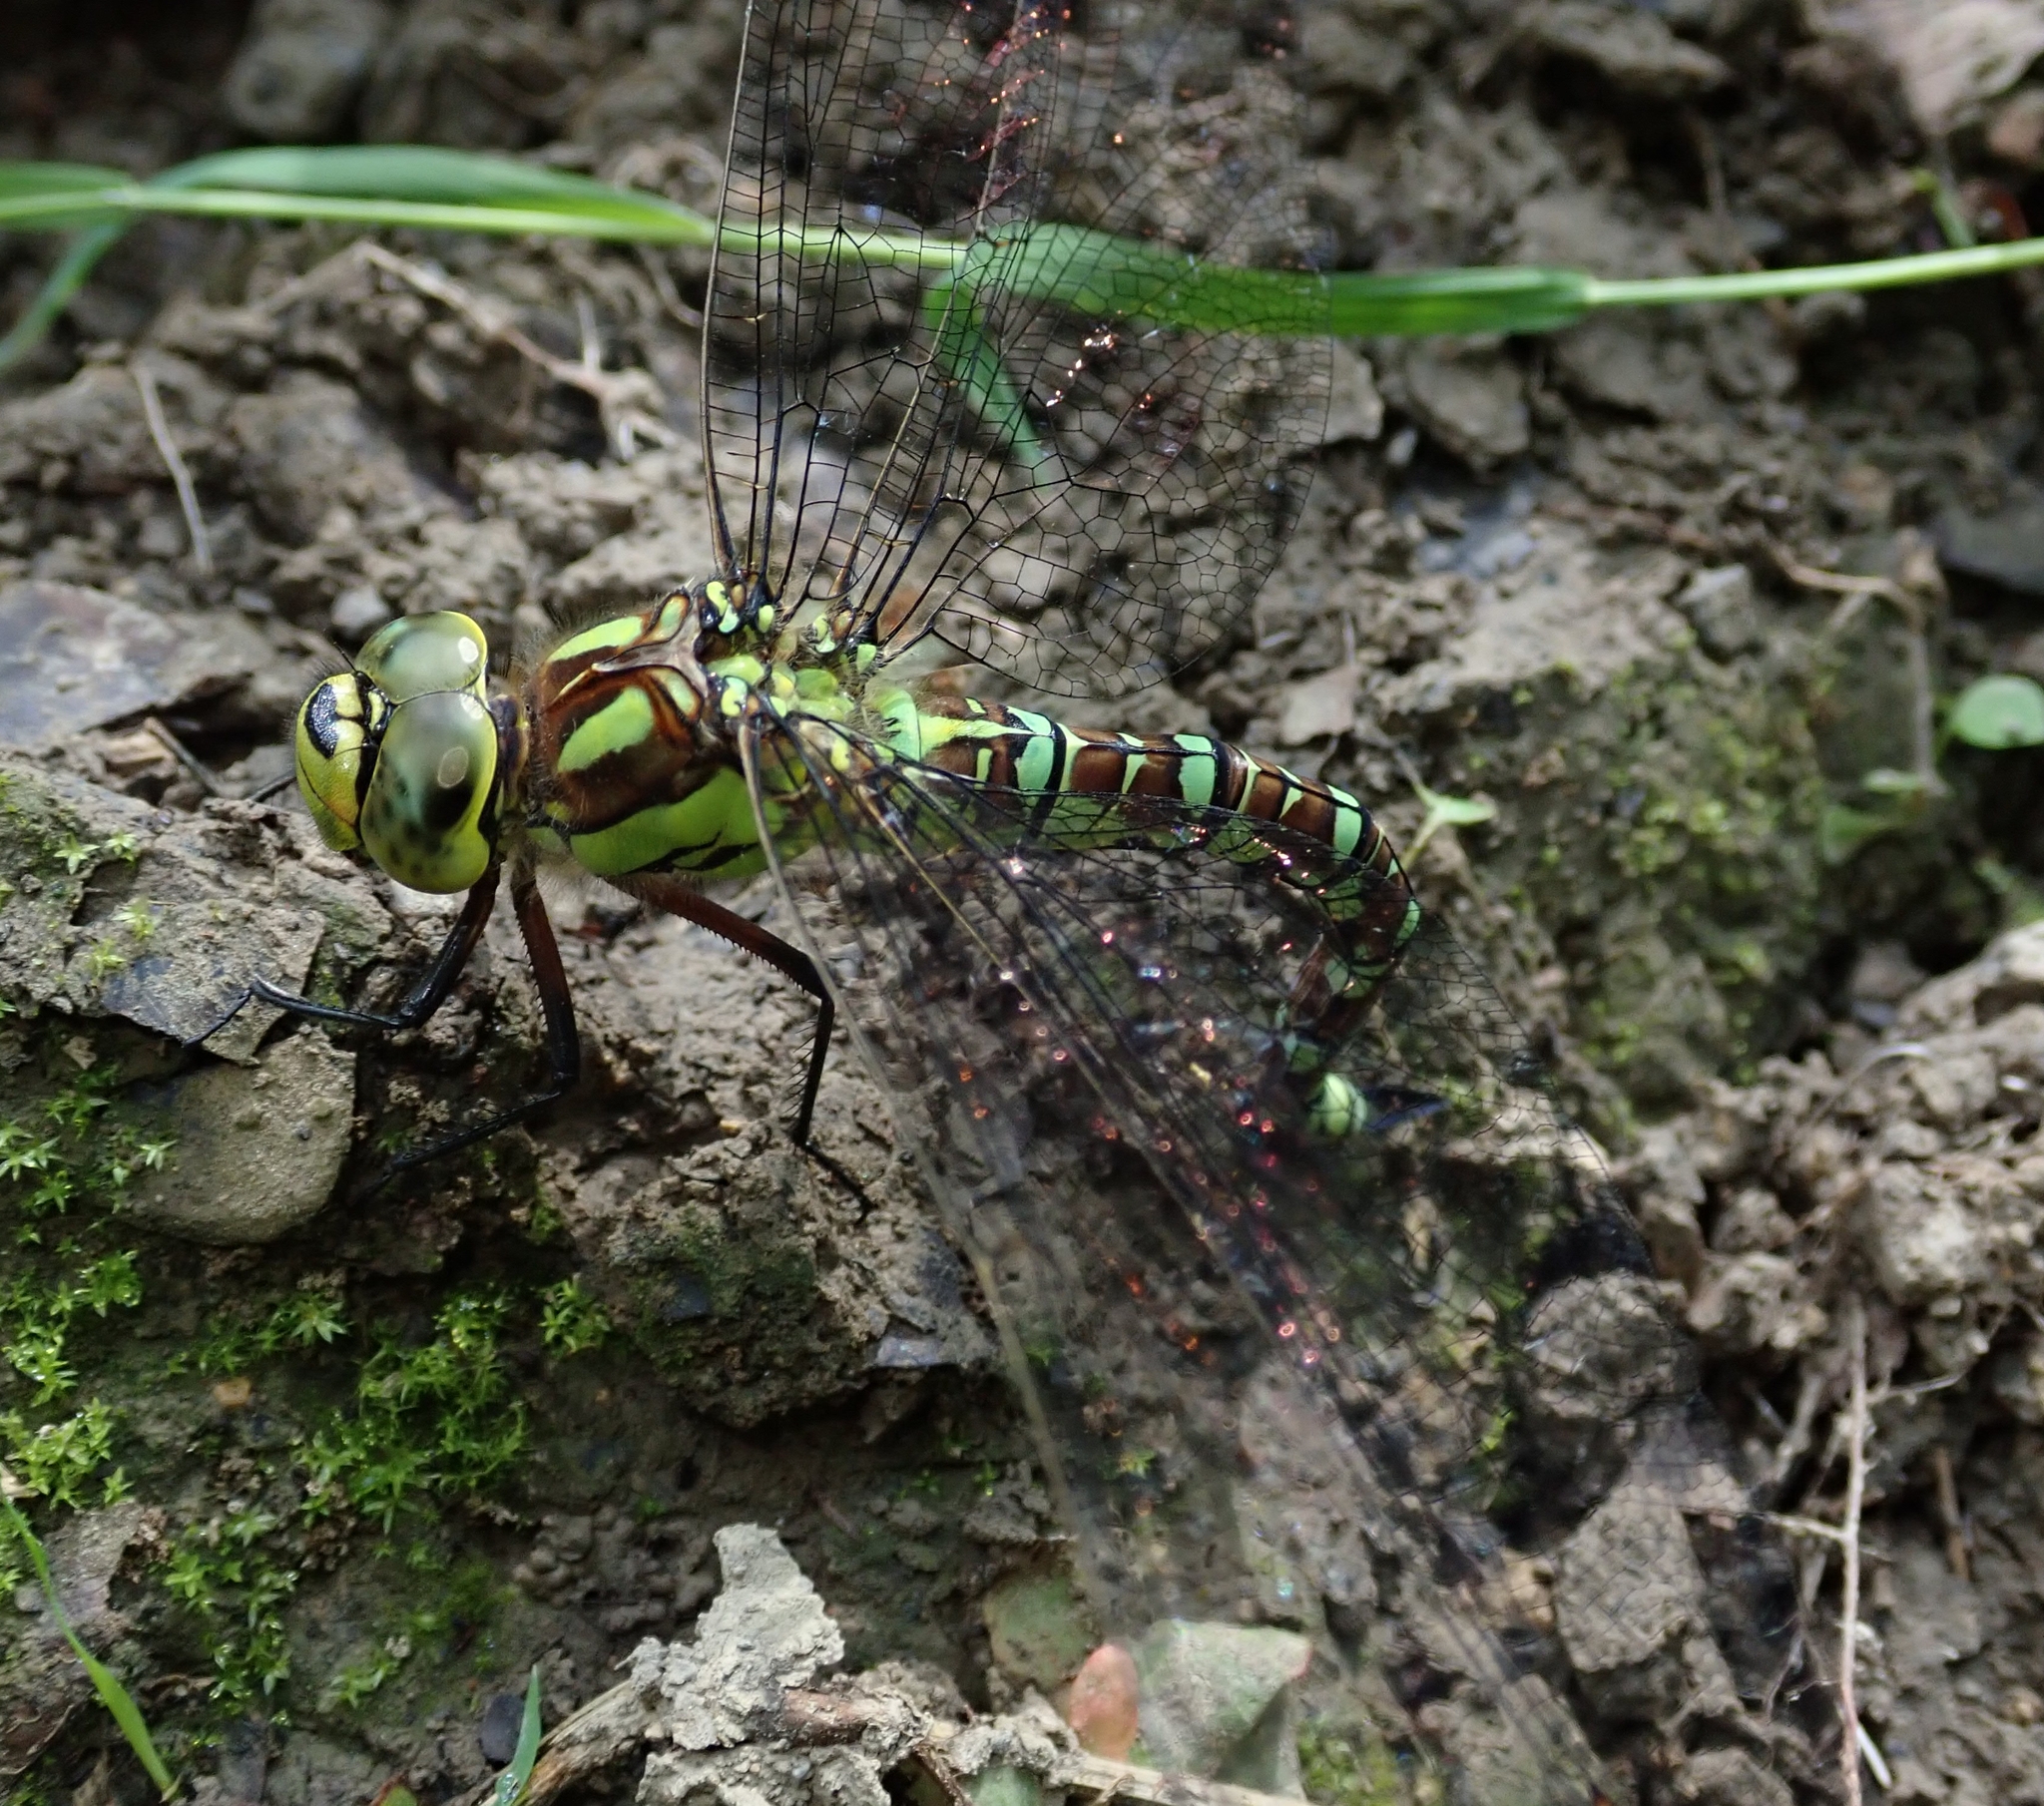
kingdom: Animalia
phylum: Arthropoda
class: Insecta
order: Odonata
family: Aeshnidae
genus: Aeshna
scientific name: Aeshna cyanea
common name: Southern hawker
